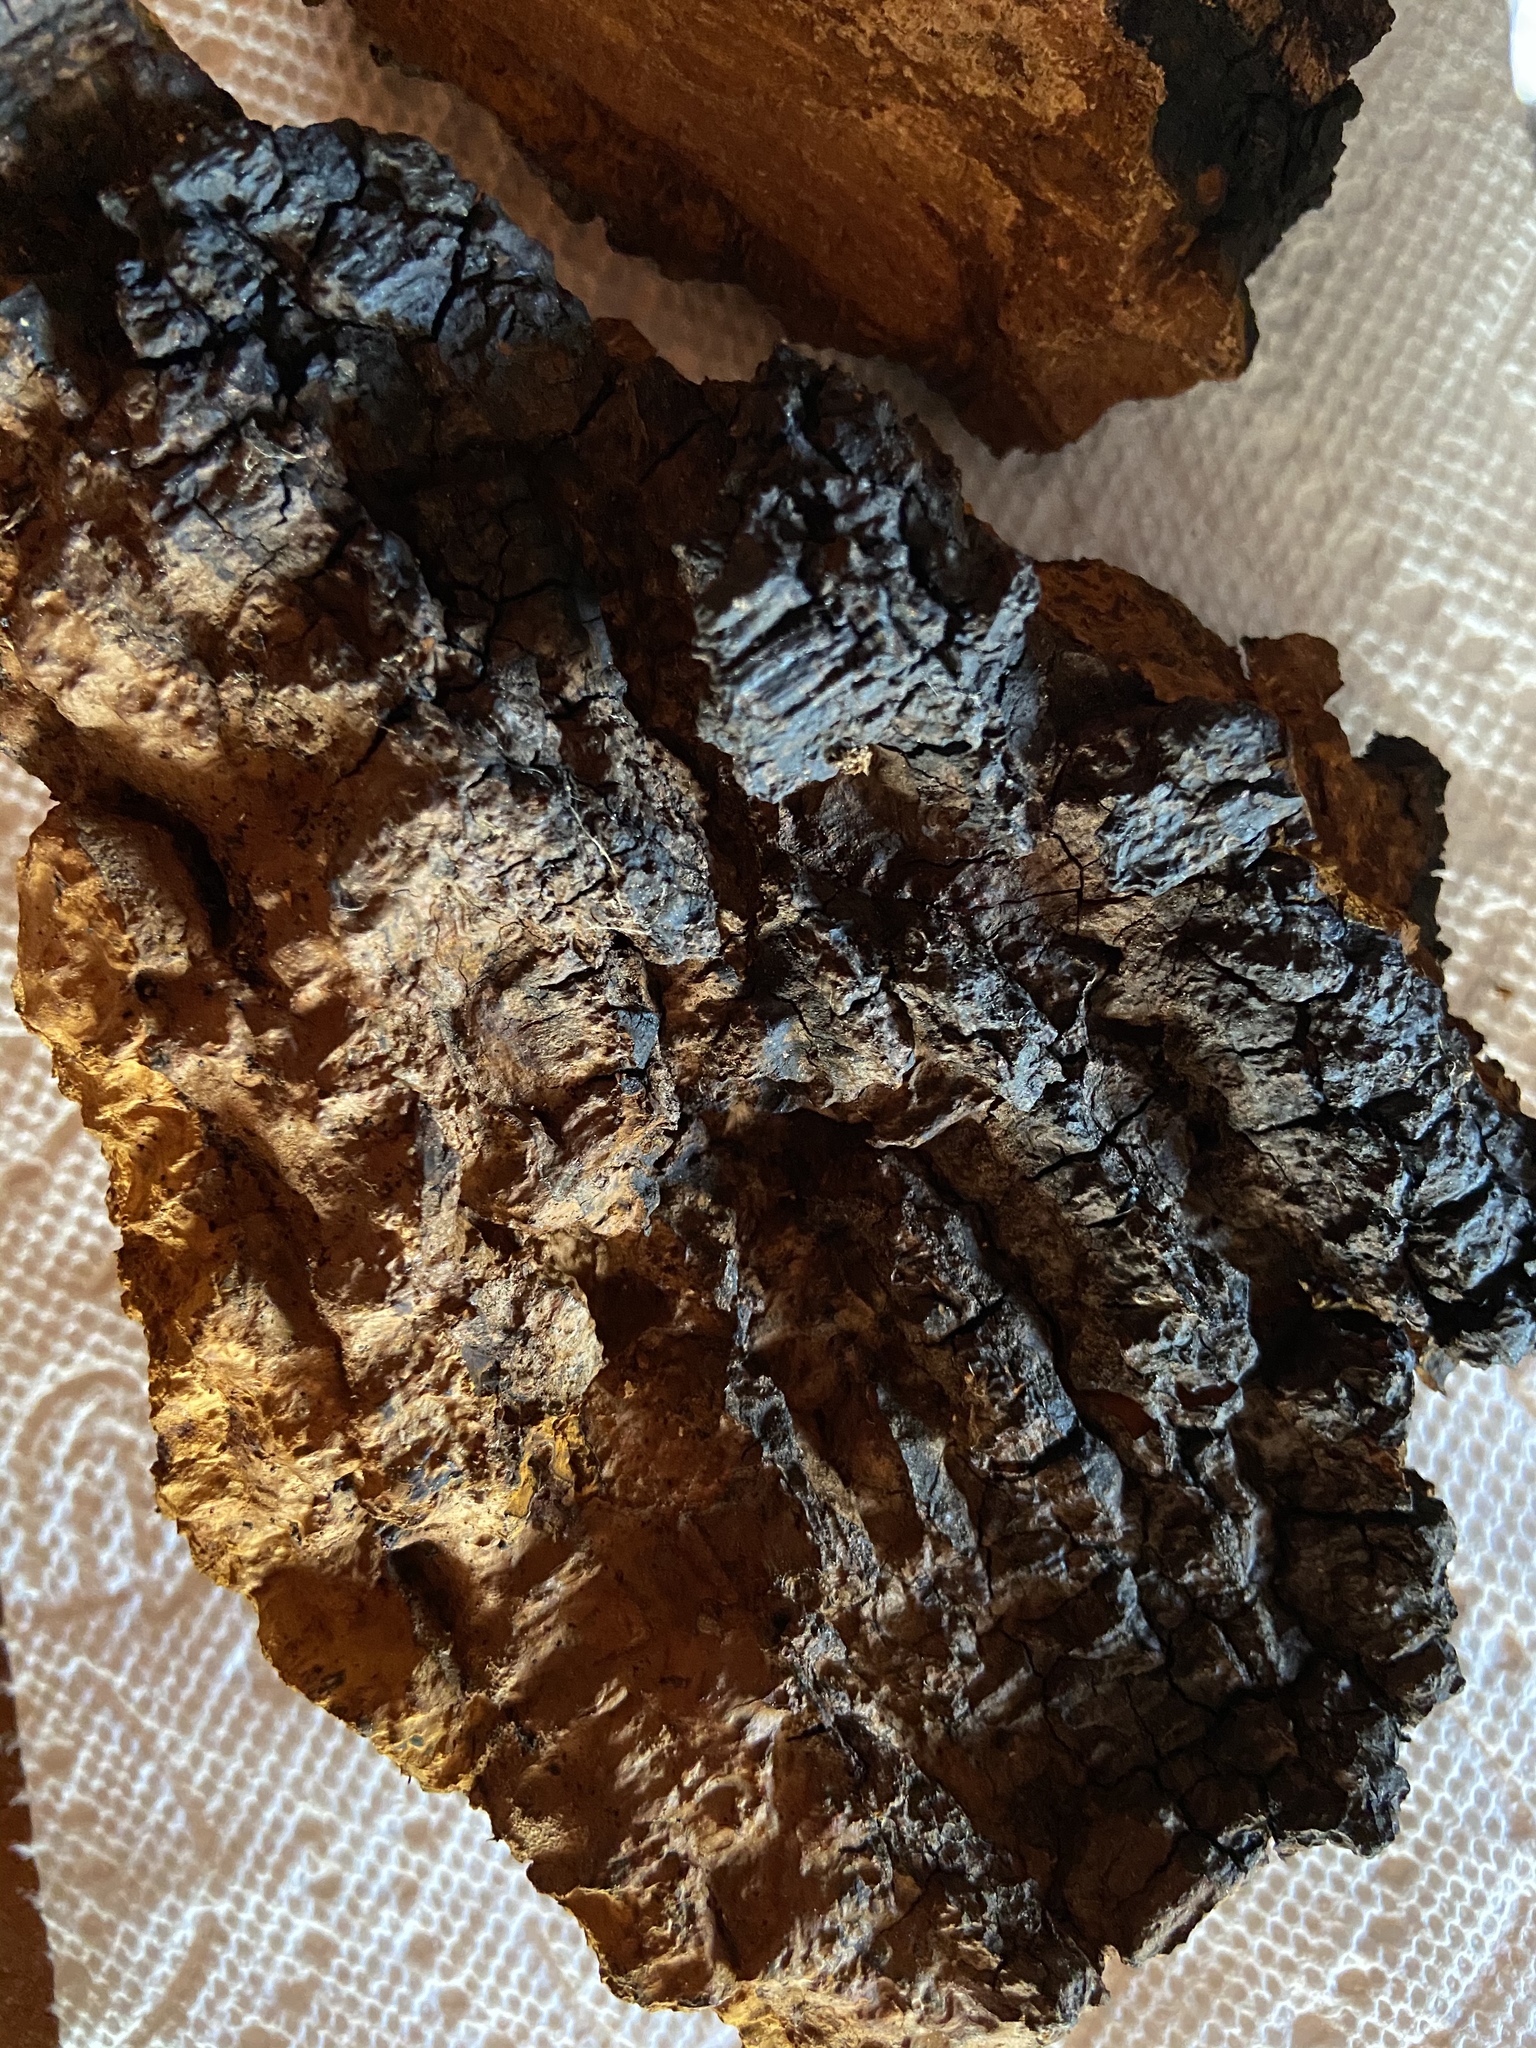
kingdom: Fungi
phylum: Basidiomycota
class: Agaricomycetes
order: Hymenochaetales
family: Hymenochaetaceae
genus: Inonotus
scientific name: Inonotus obliquus
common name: Chaga
